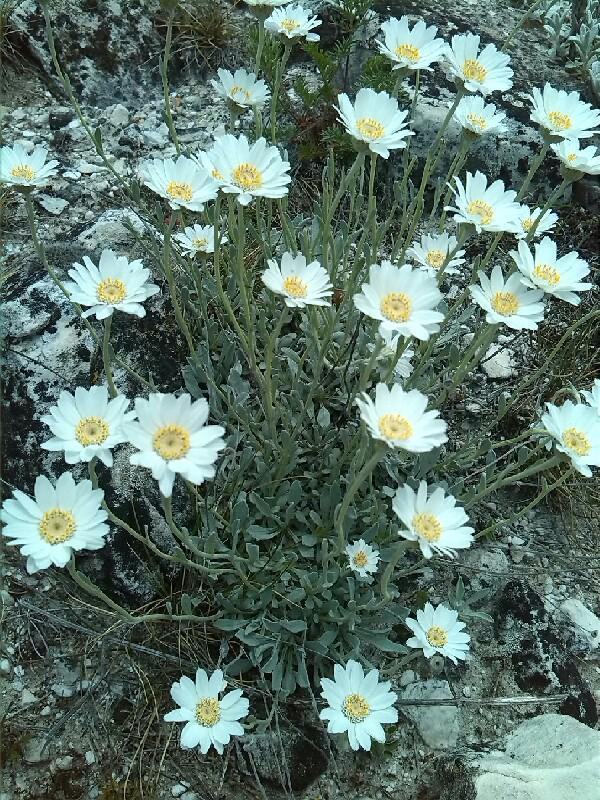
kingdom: Plantae
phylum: Tracheophyta
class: Magnoliopsida
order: Asterales
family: Asteraceae
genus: Achillea
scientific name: Achillea ageratifolia
